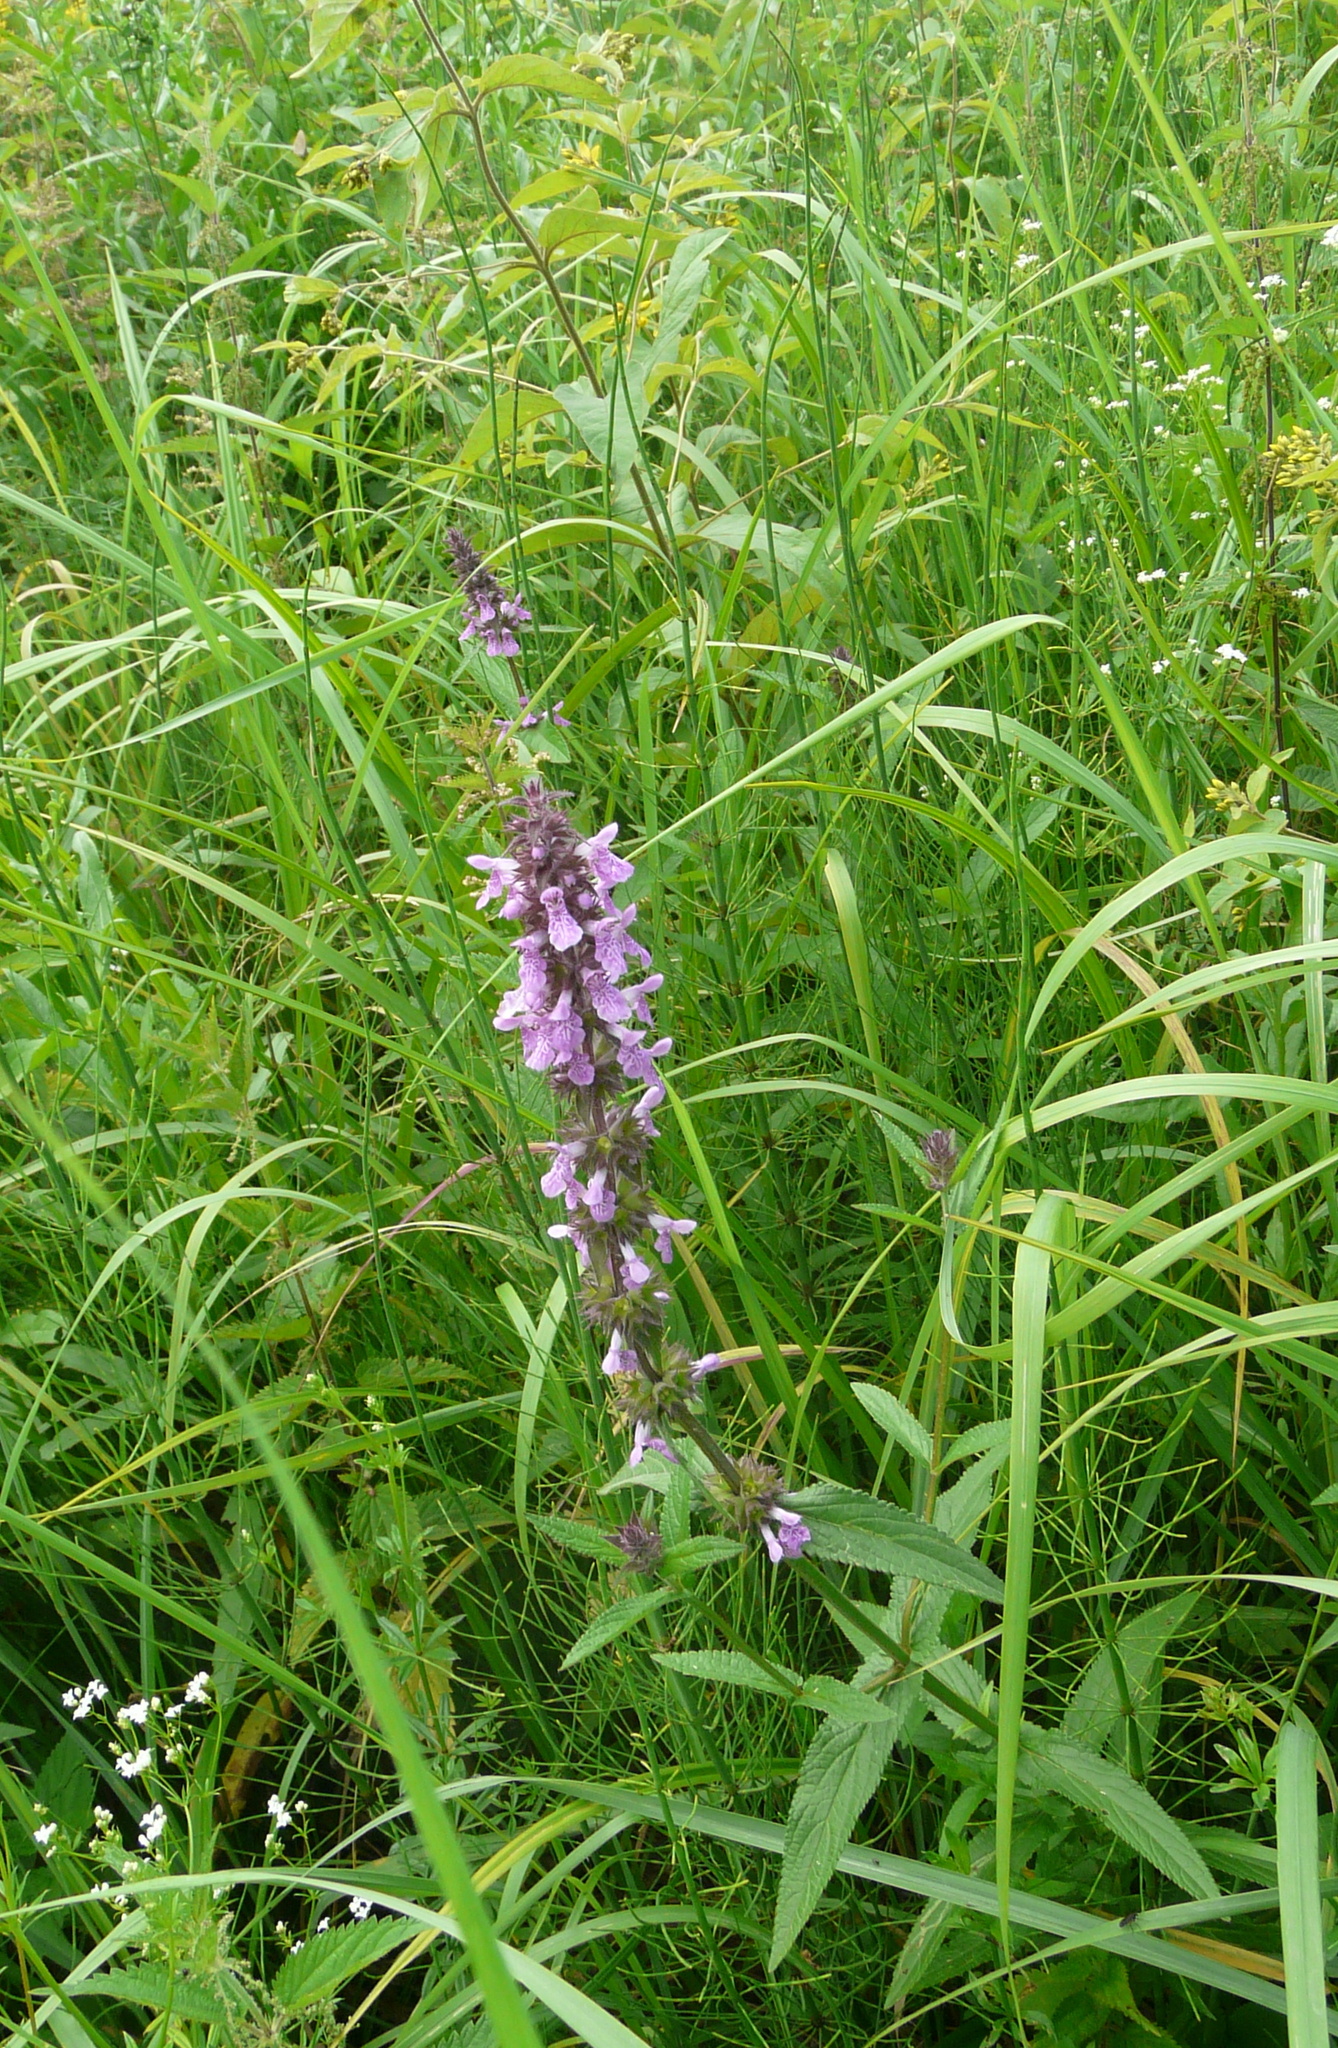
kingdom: Plantae
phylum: Tracheophyta
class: Magnoliopsida
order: Lamiales
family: Lamiaceae
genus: Stachys
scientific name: Stachys palustris
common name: Marsh woundwort
